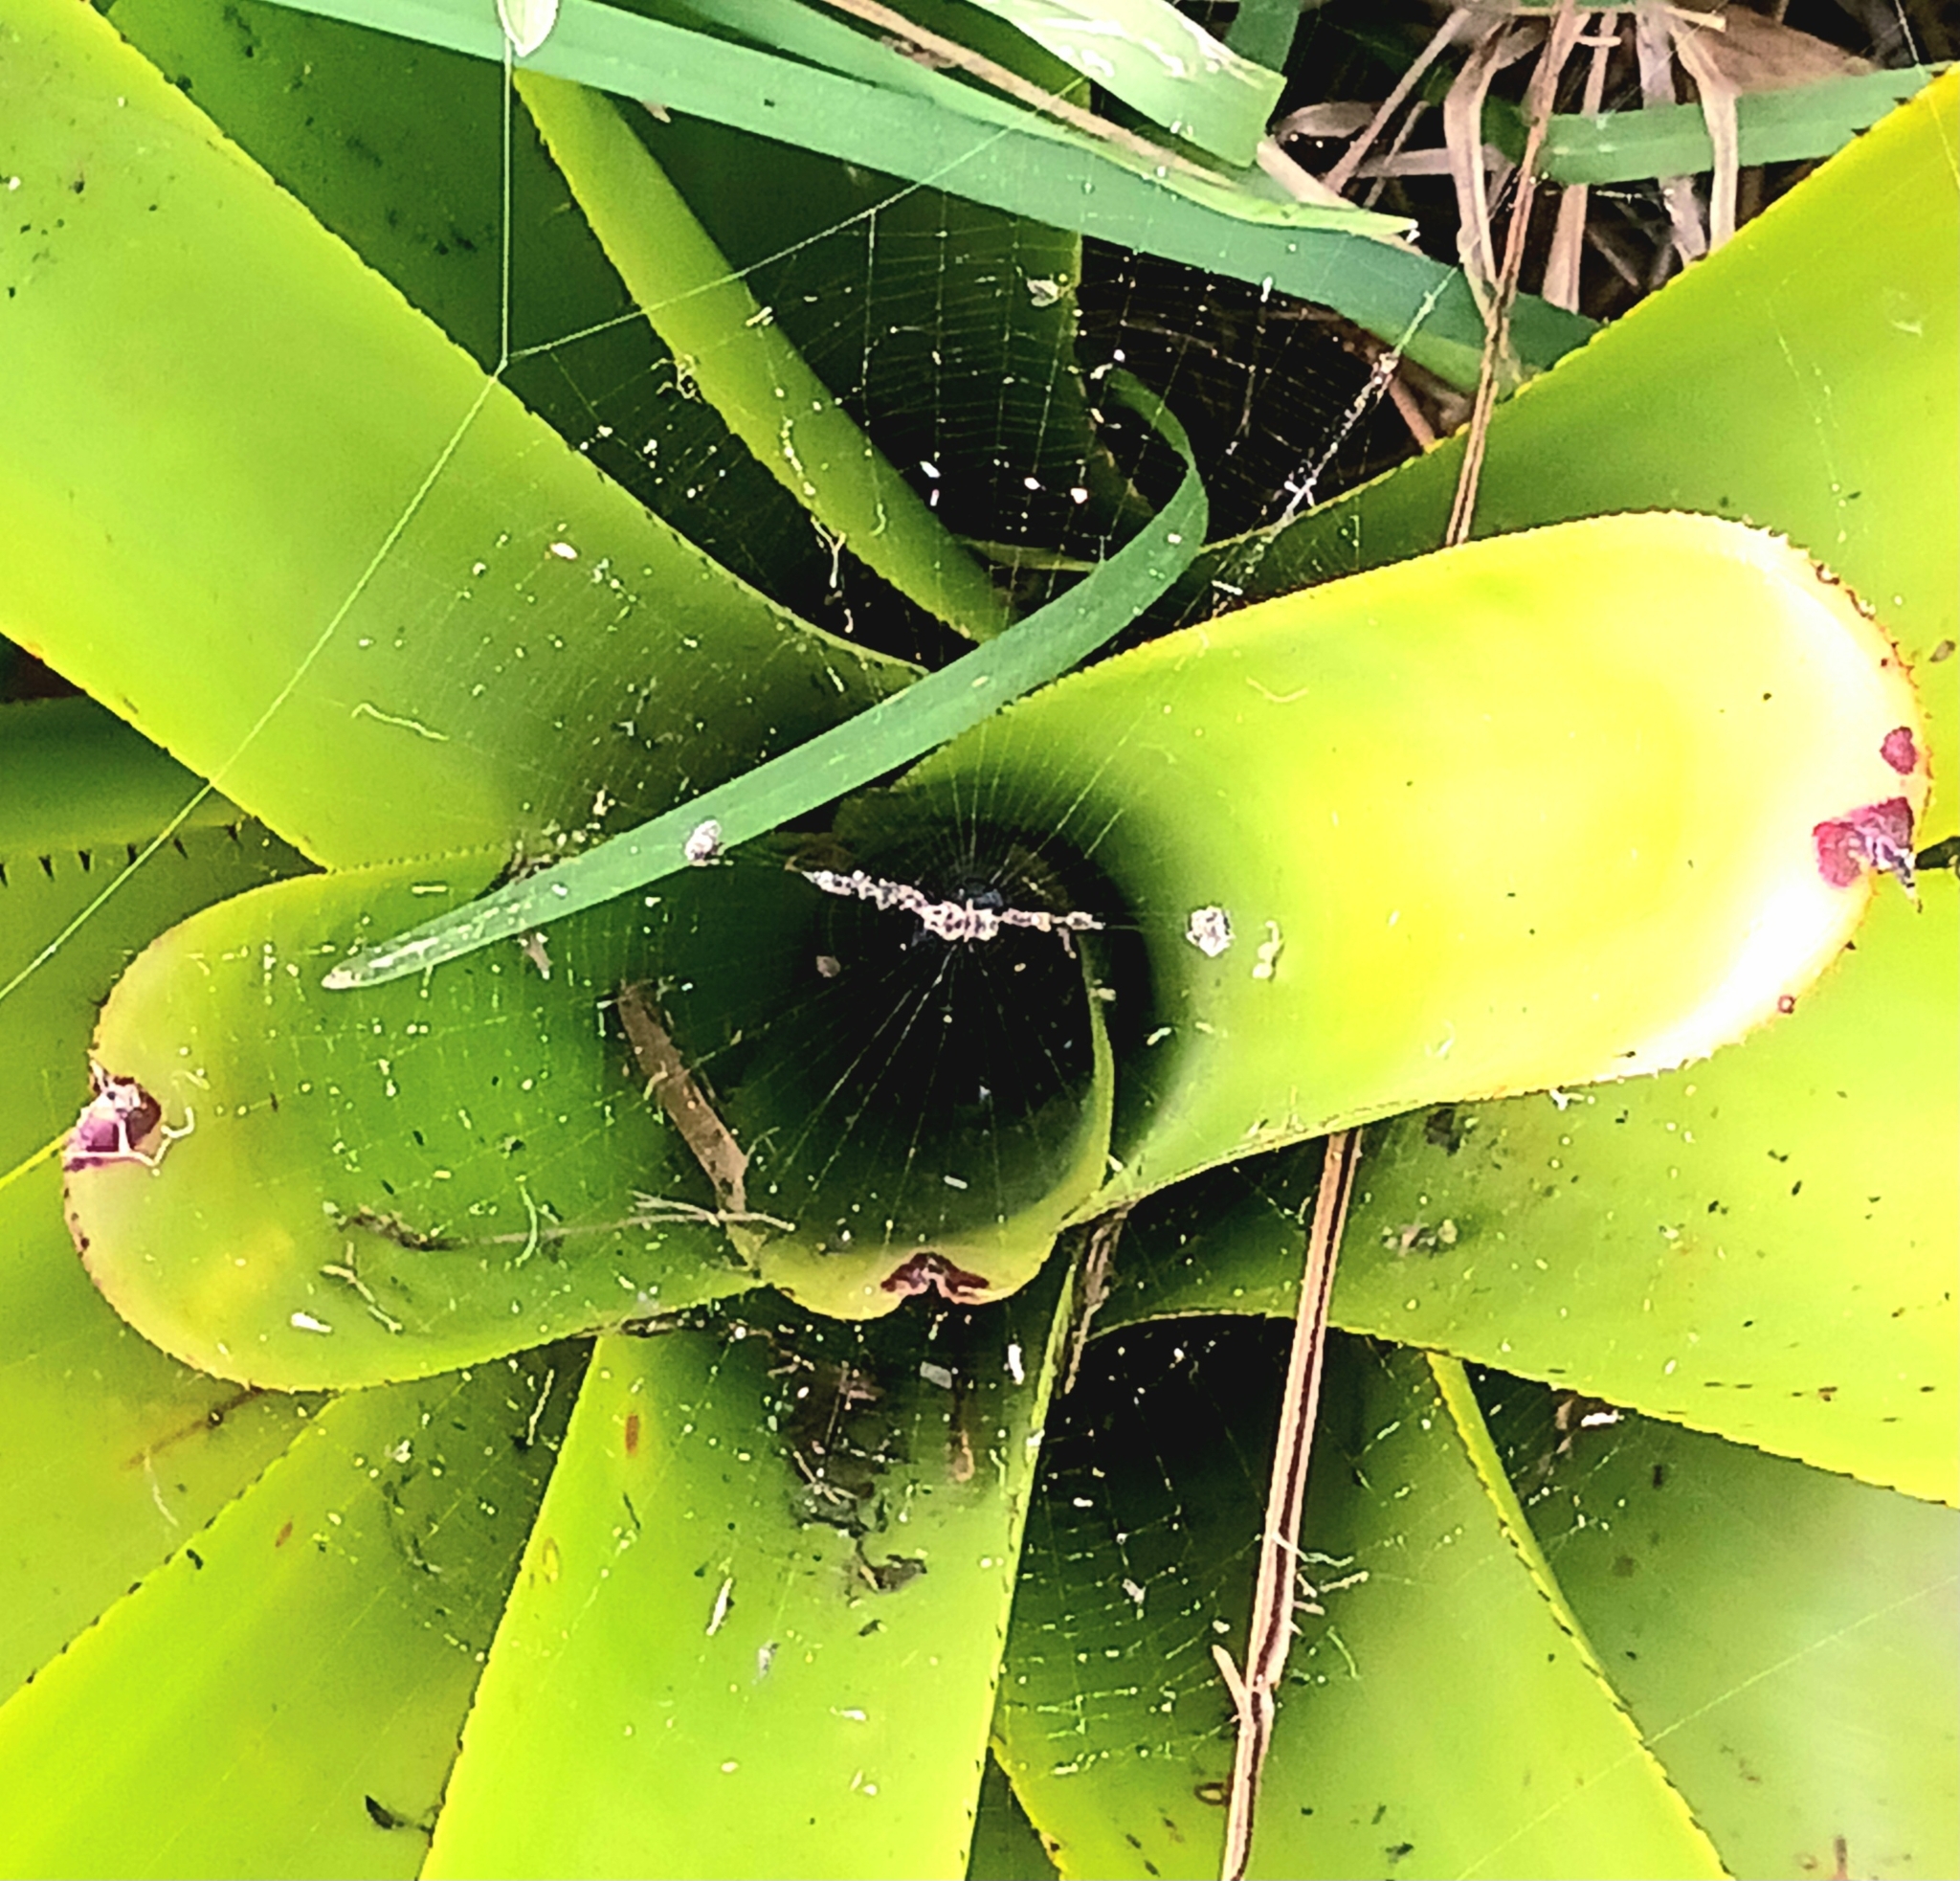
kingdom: Animalia
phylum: Arthropoda
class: Arachnida
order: Araneae
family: Araneidae
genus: Cyclosa
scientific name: Cyclosa walckenaeri
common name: Orb weavers
